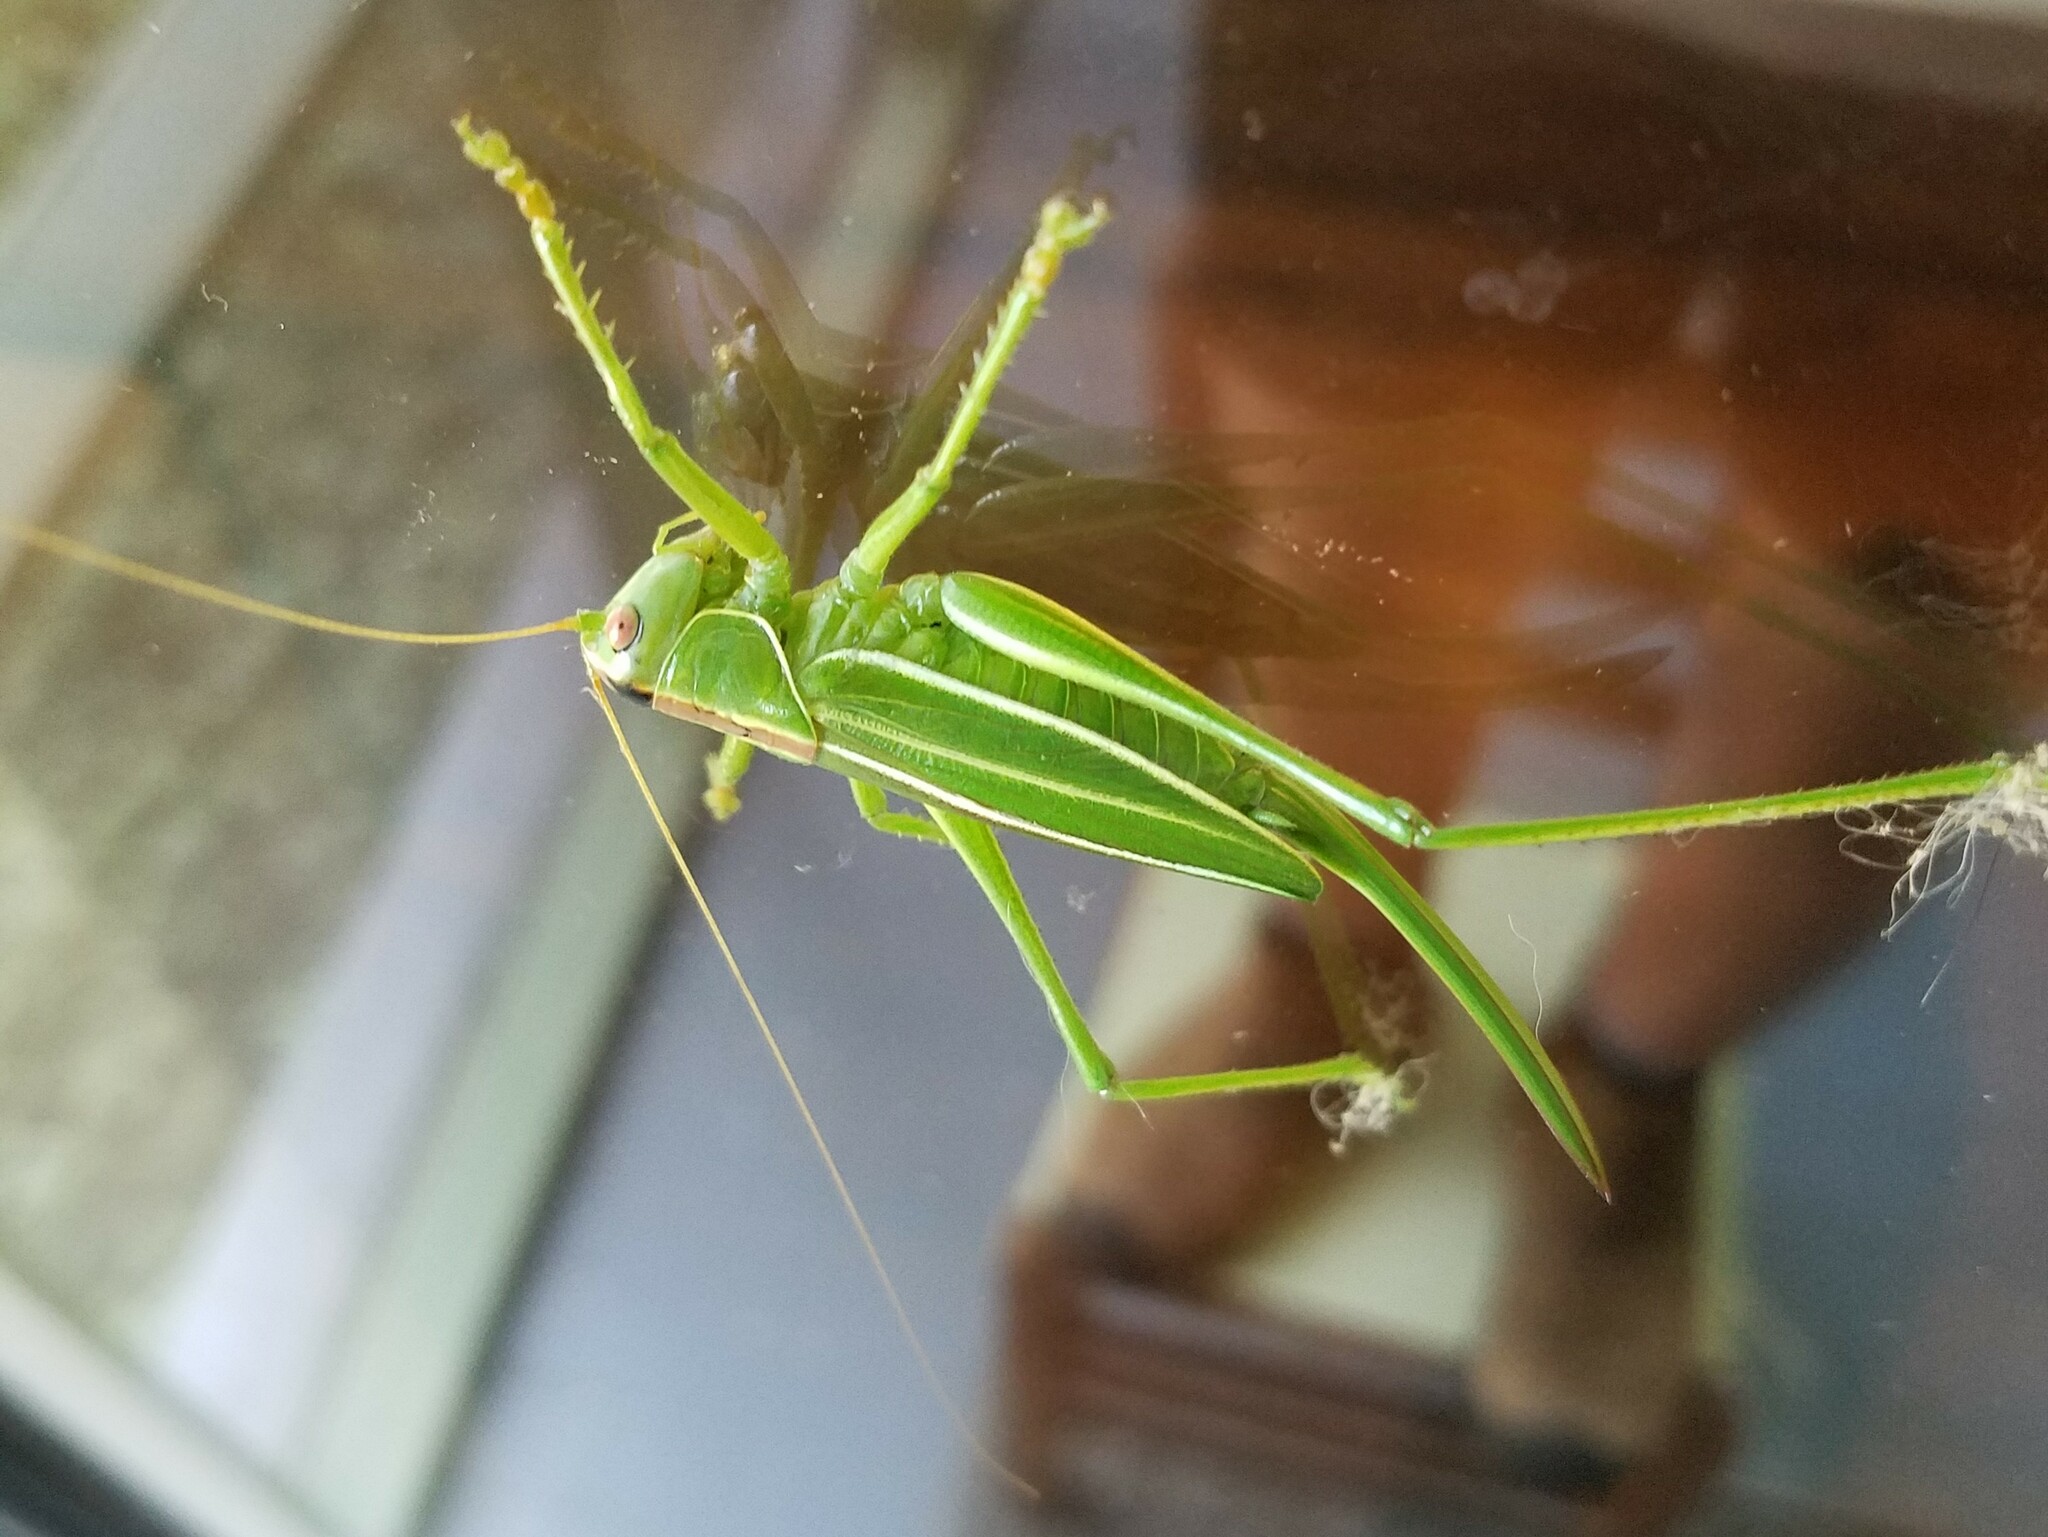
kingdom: Animalia
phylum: Arthropoda
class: Insecta
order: Orthoptera
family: Tettigoniidae
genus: Hubbellia
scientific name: Hubbellia marginifera
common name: Pine katydid
